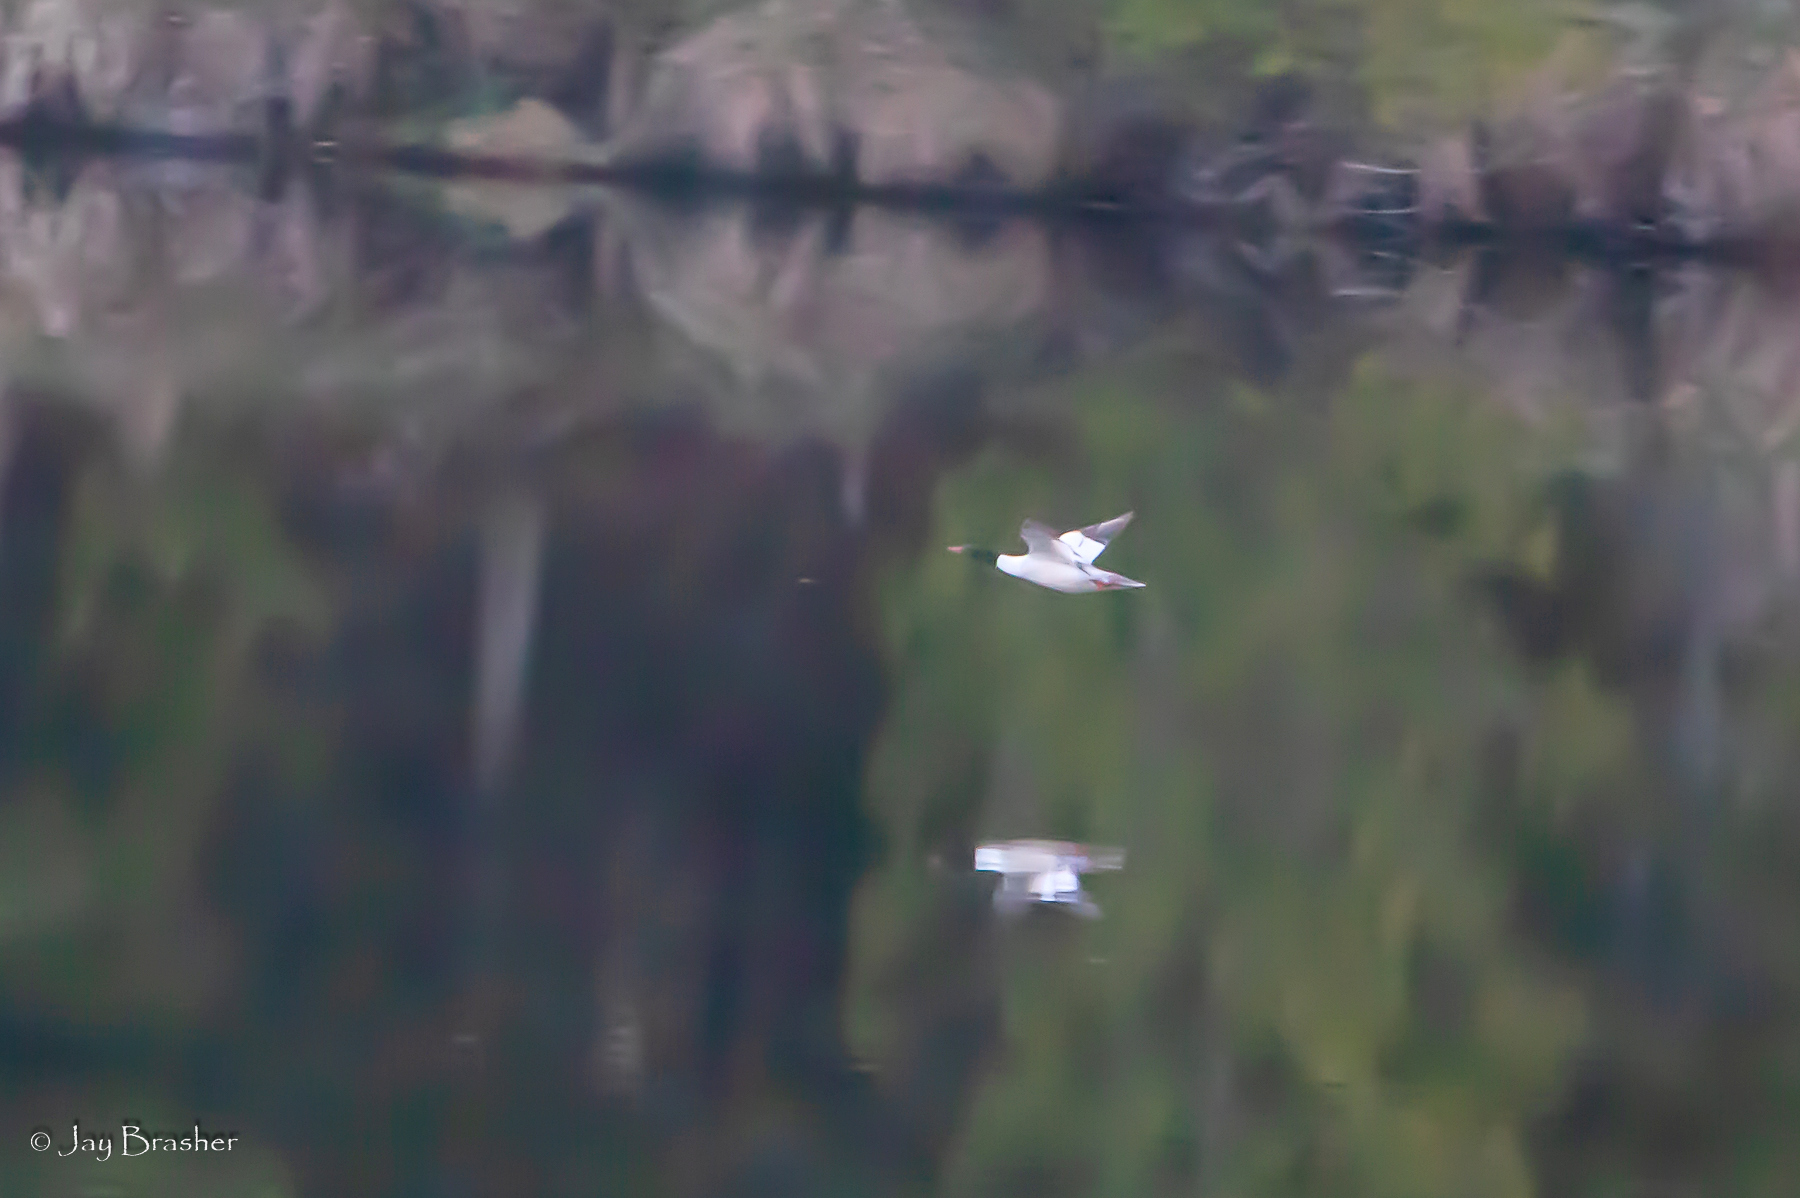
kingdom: Animalia
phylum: Chordata
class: Aves
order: Anseriformes
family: Anatidae
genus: Mergus
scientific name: Mergus merganser
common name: Common merganser
